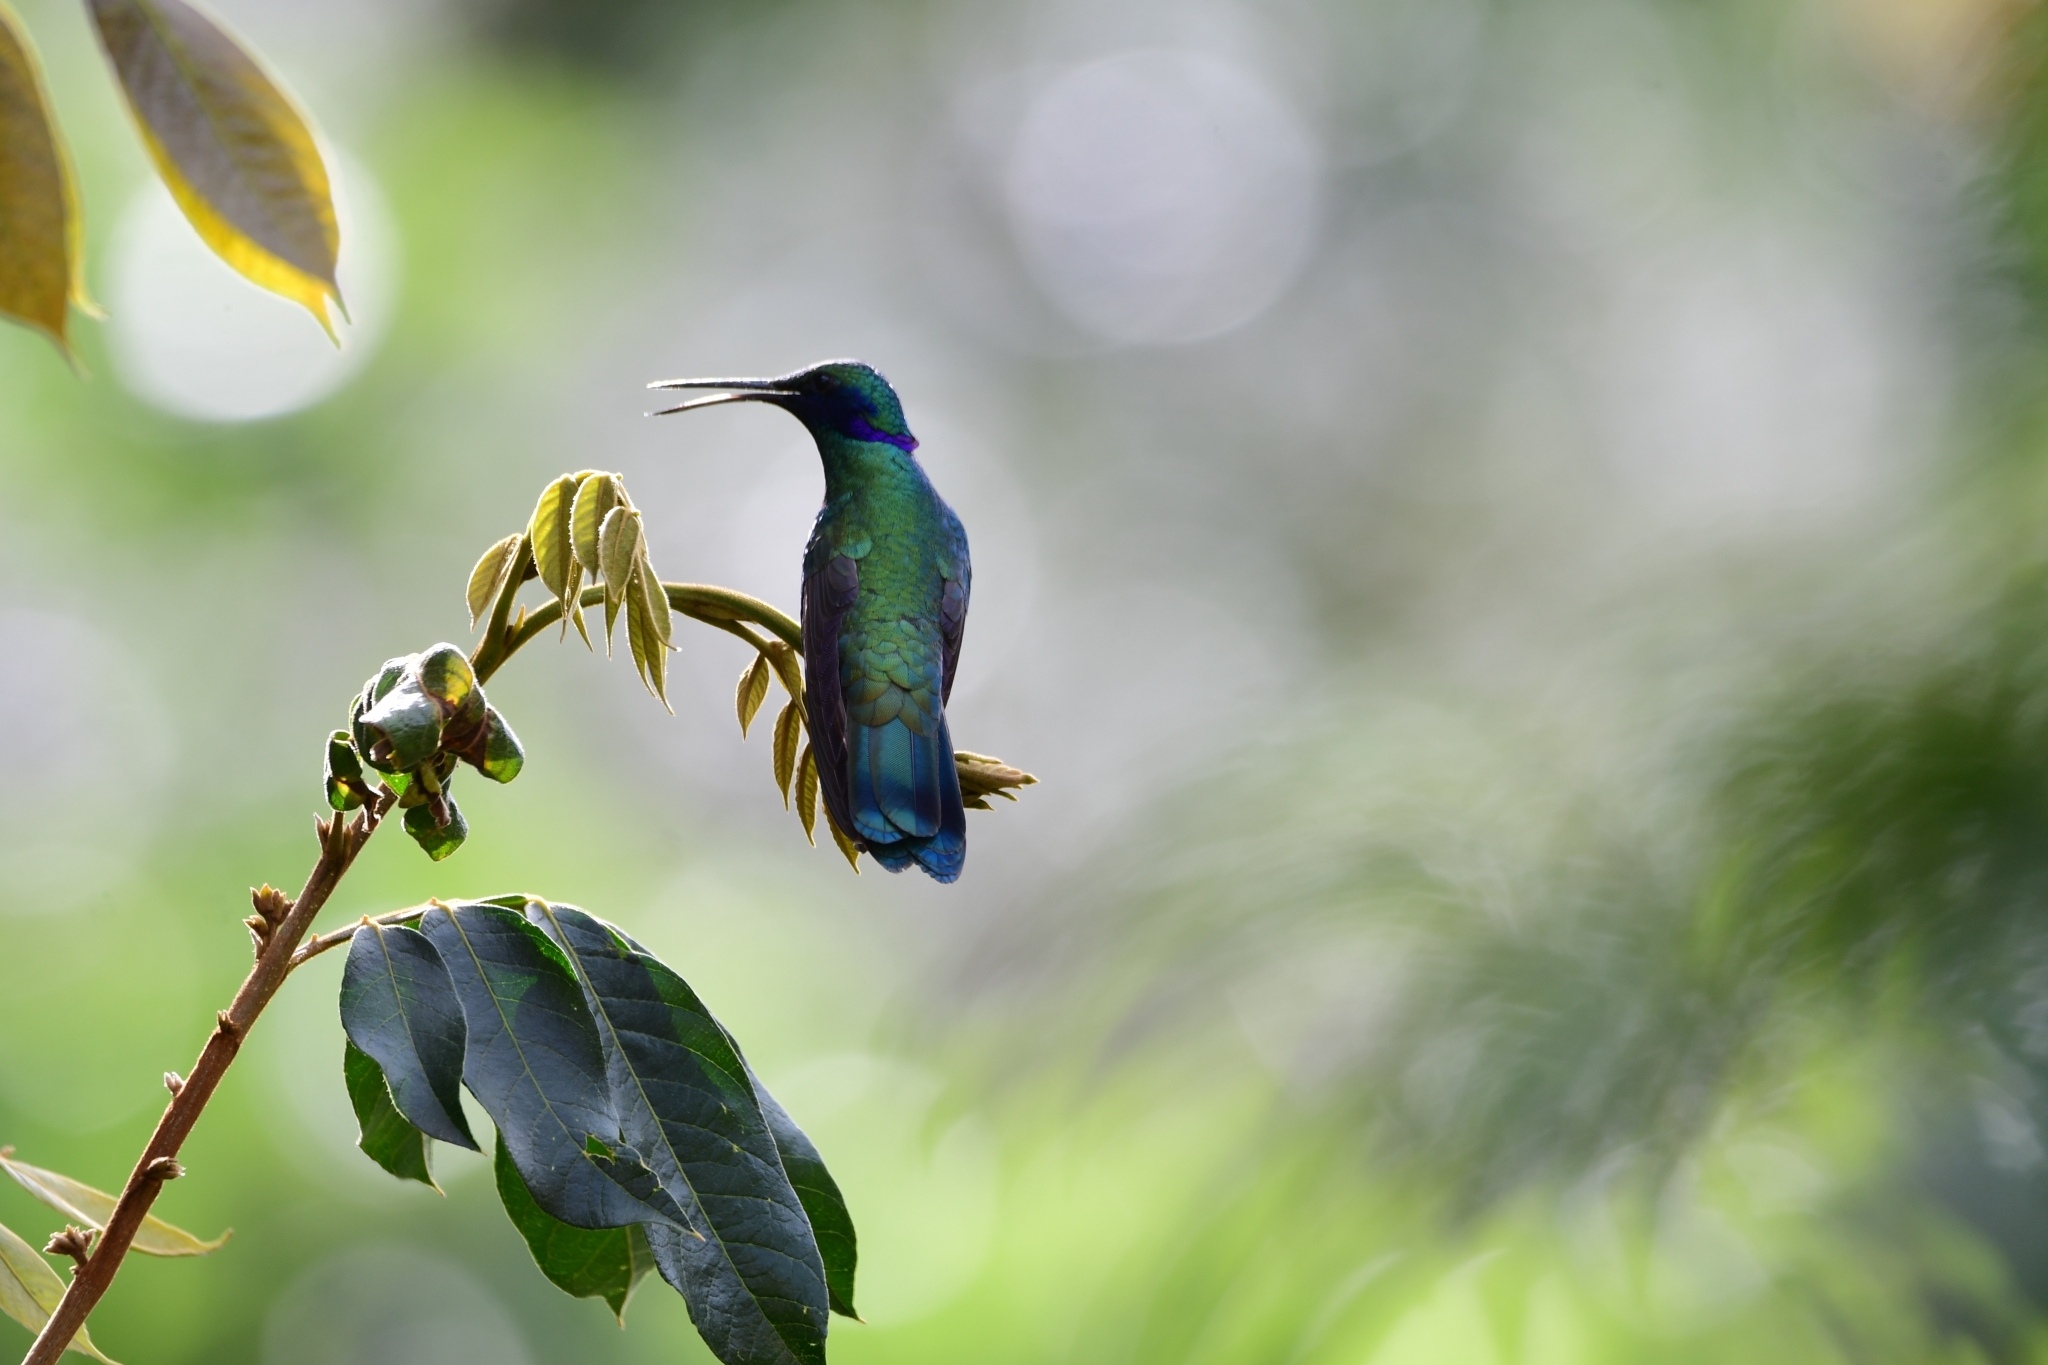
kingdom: Animalia
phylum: Chordata
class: Aves
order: Apodiformes
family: Trochilidae
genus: Colibri
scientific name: Colibri coruscans
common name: Sparkling violetear
